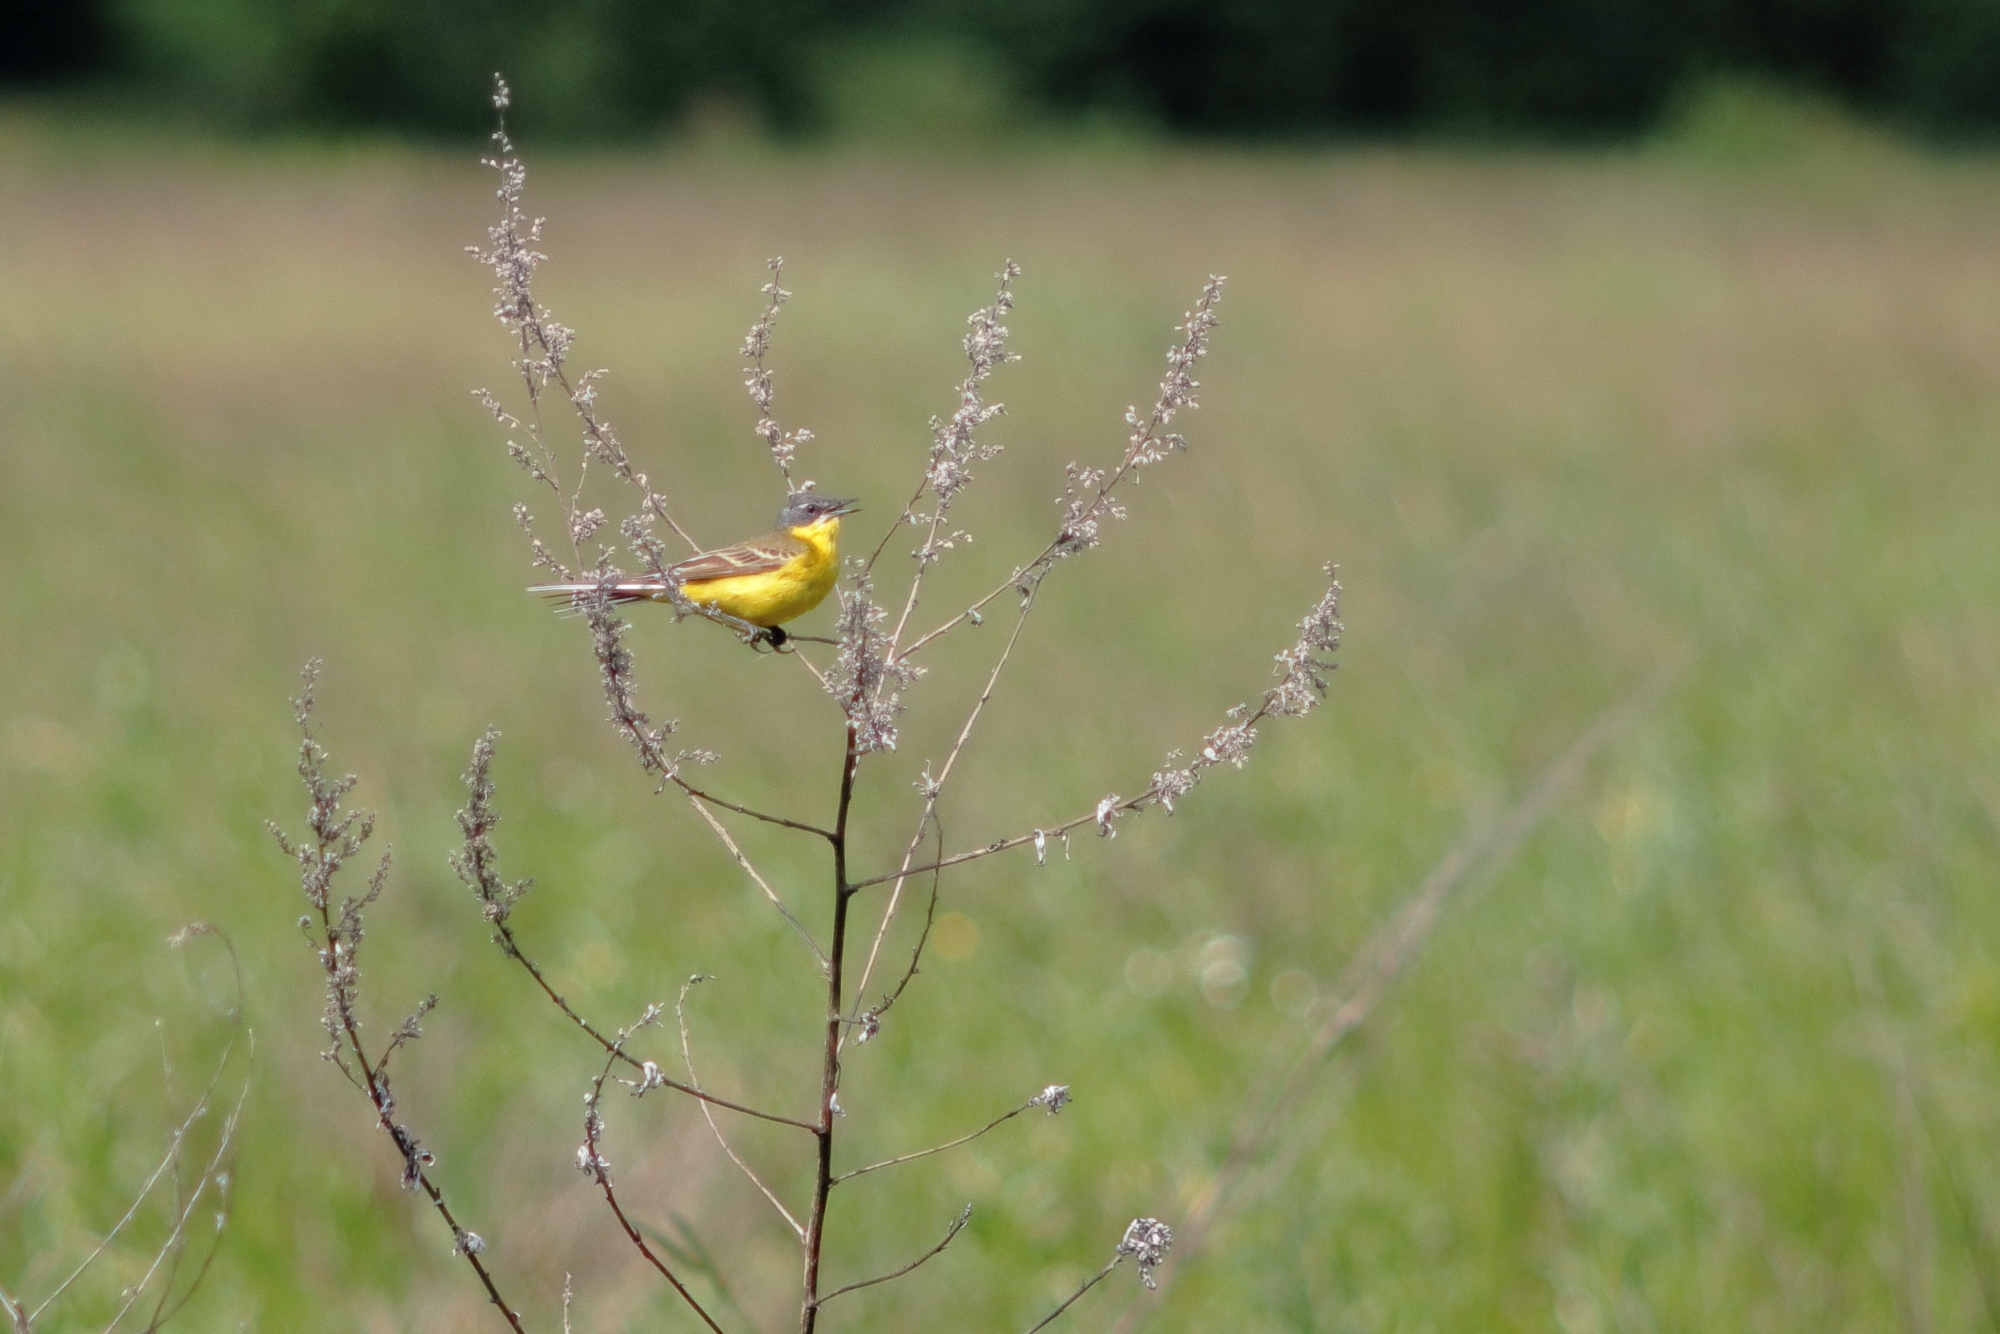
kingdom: Animalia
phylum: Chordata
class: Aves
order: Passeriformes
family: Motacillidae
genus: Motacilla
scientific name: Motacilla flava
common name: Western yellow wagtail
